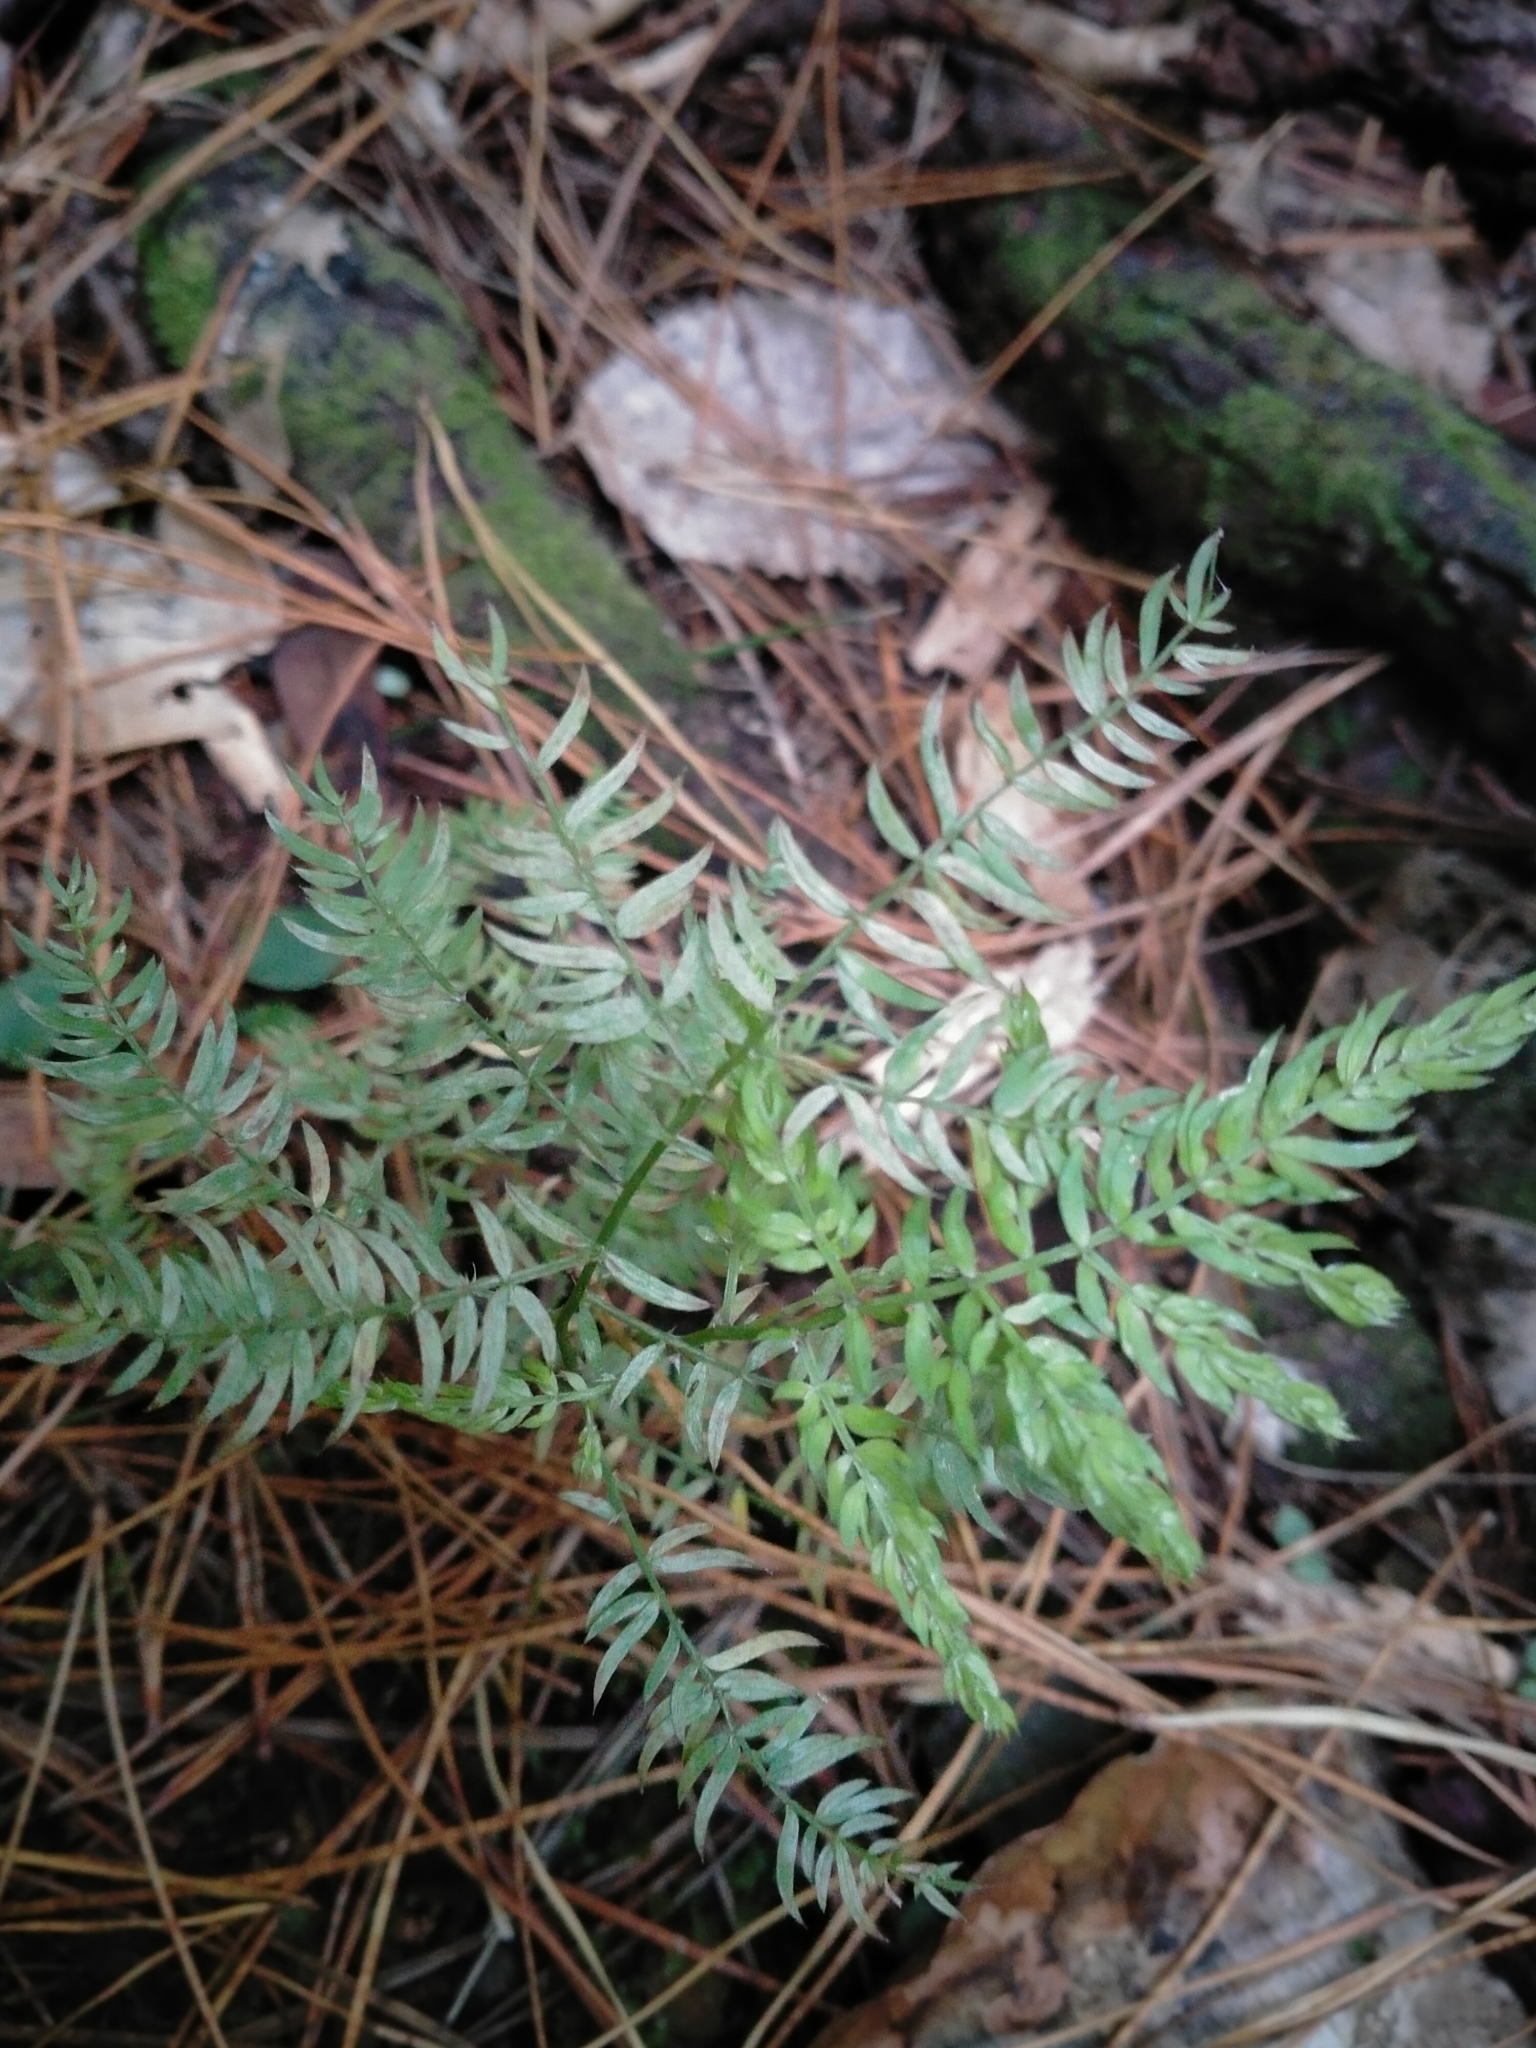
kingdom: Plantae
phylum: Tracheophyta
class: Liliopsida
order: Asparagales
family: Asparagaceae
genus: Asparagus
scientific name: Asparagus scandens
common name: Asparagus-fern
